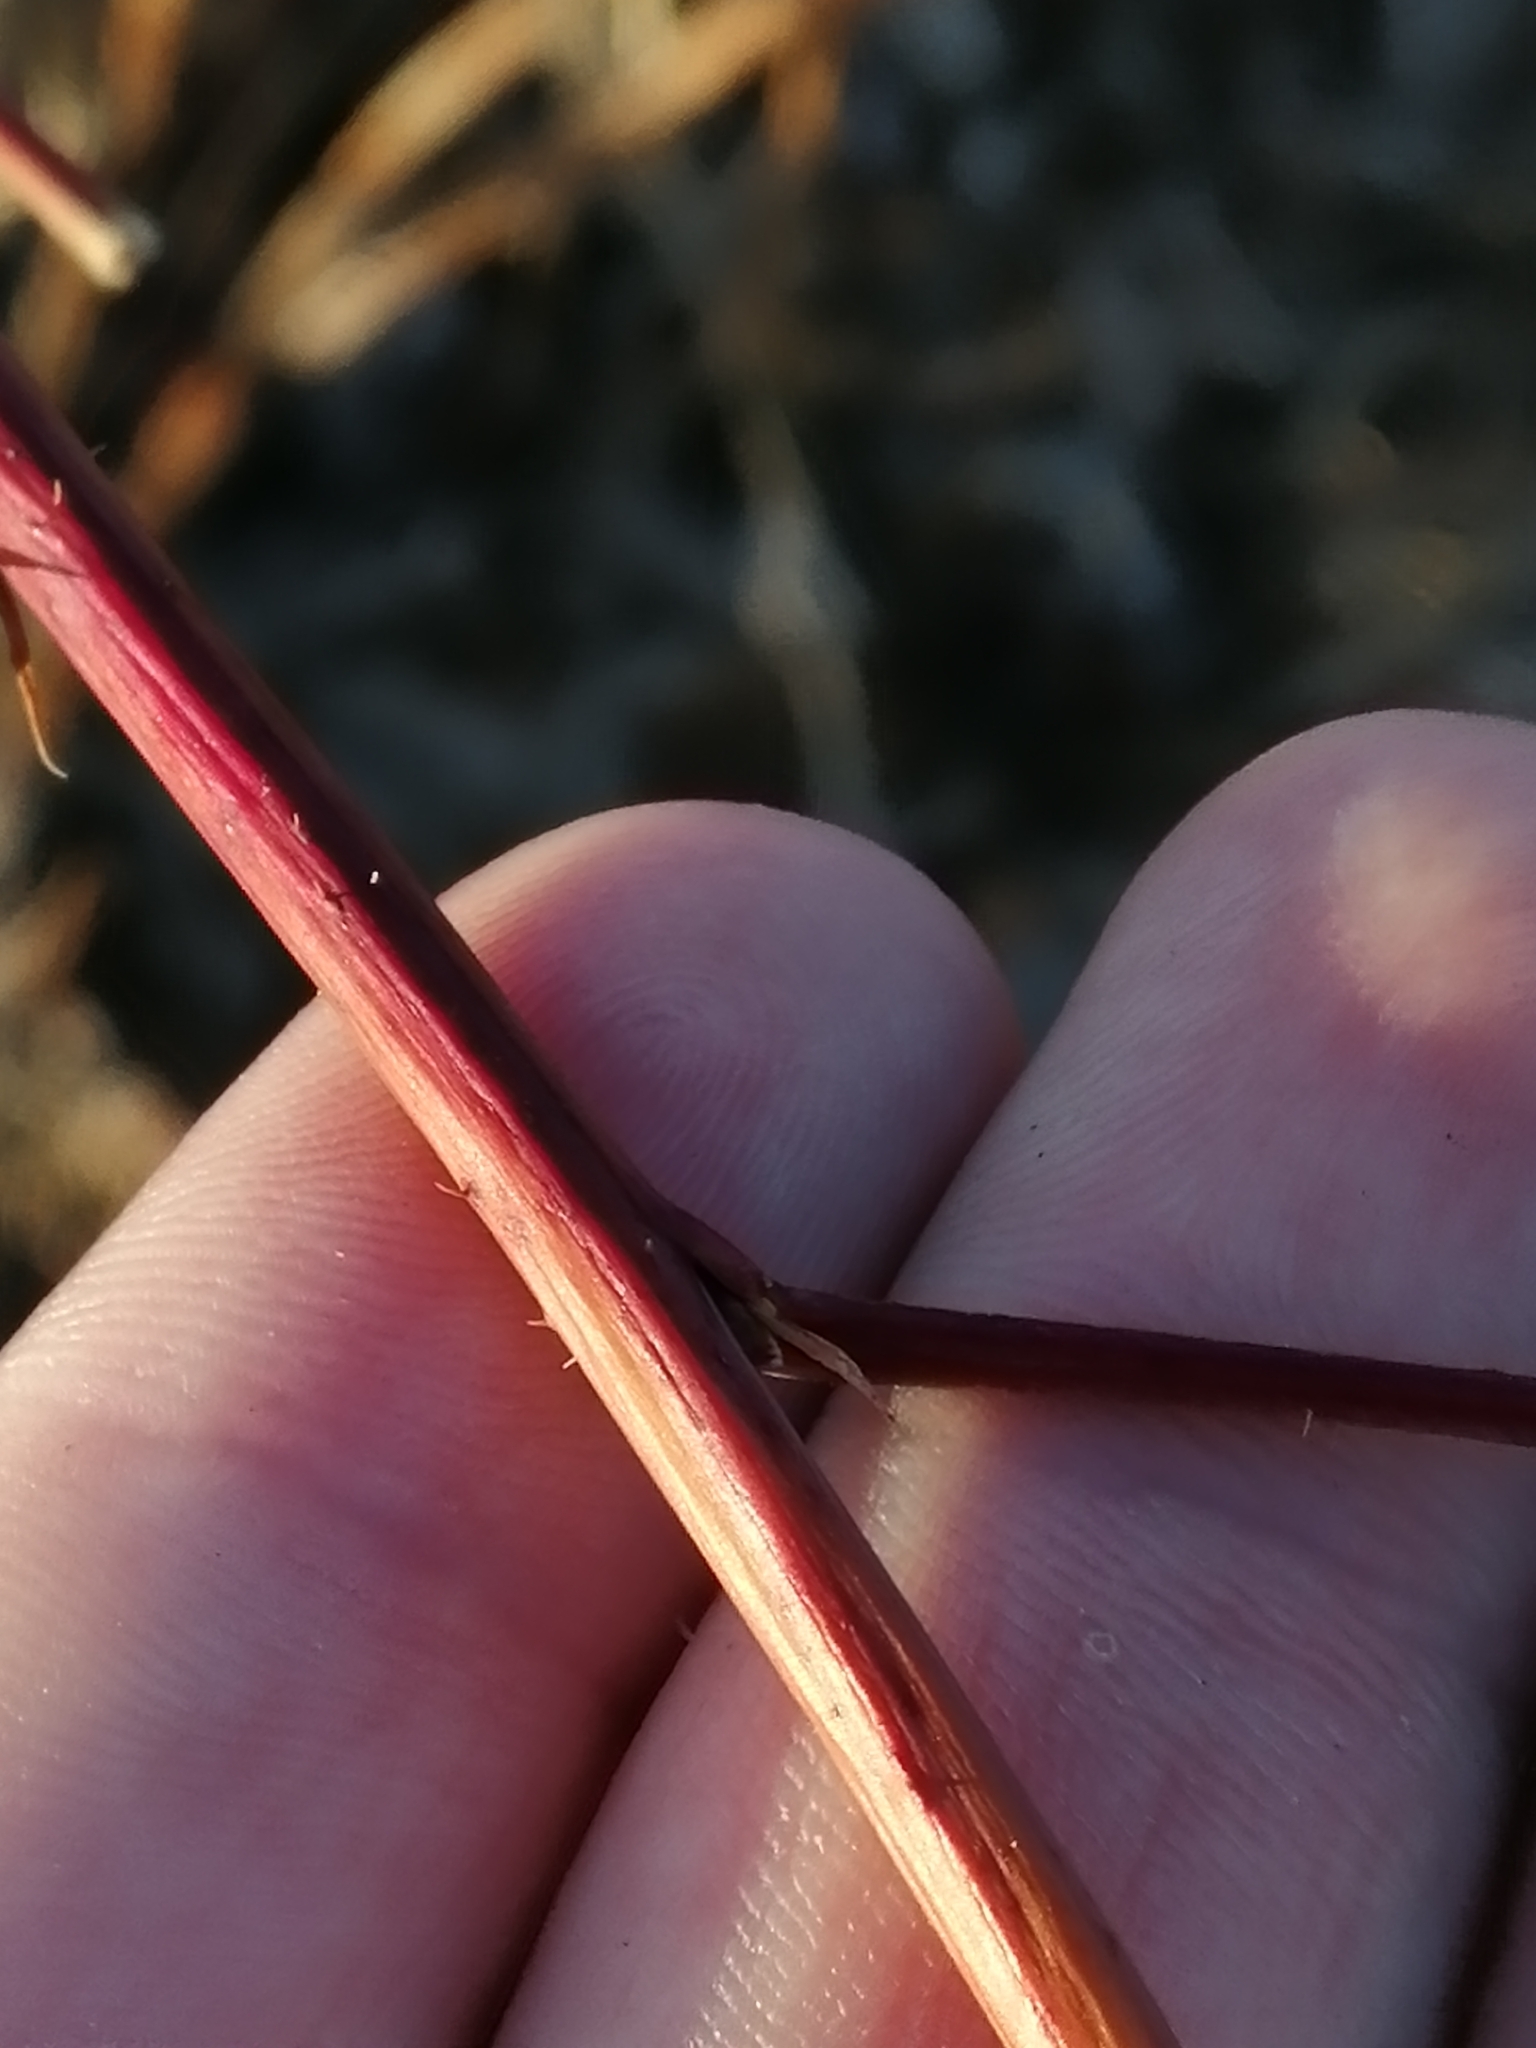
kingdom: Plantae
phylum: Tracheophyta
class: Magnoliopsida
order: Rosales
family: Rosaceae
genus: Rubus
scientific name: Rubus idaeus
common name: Raspberry
